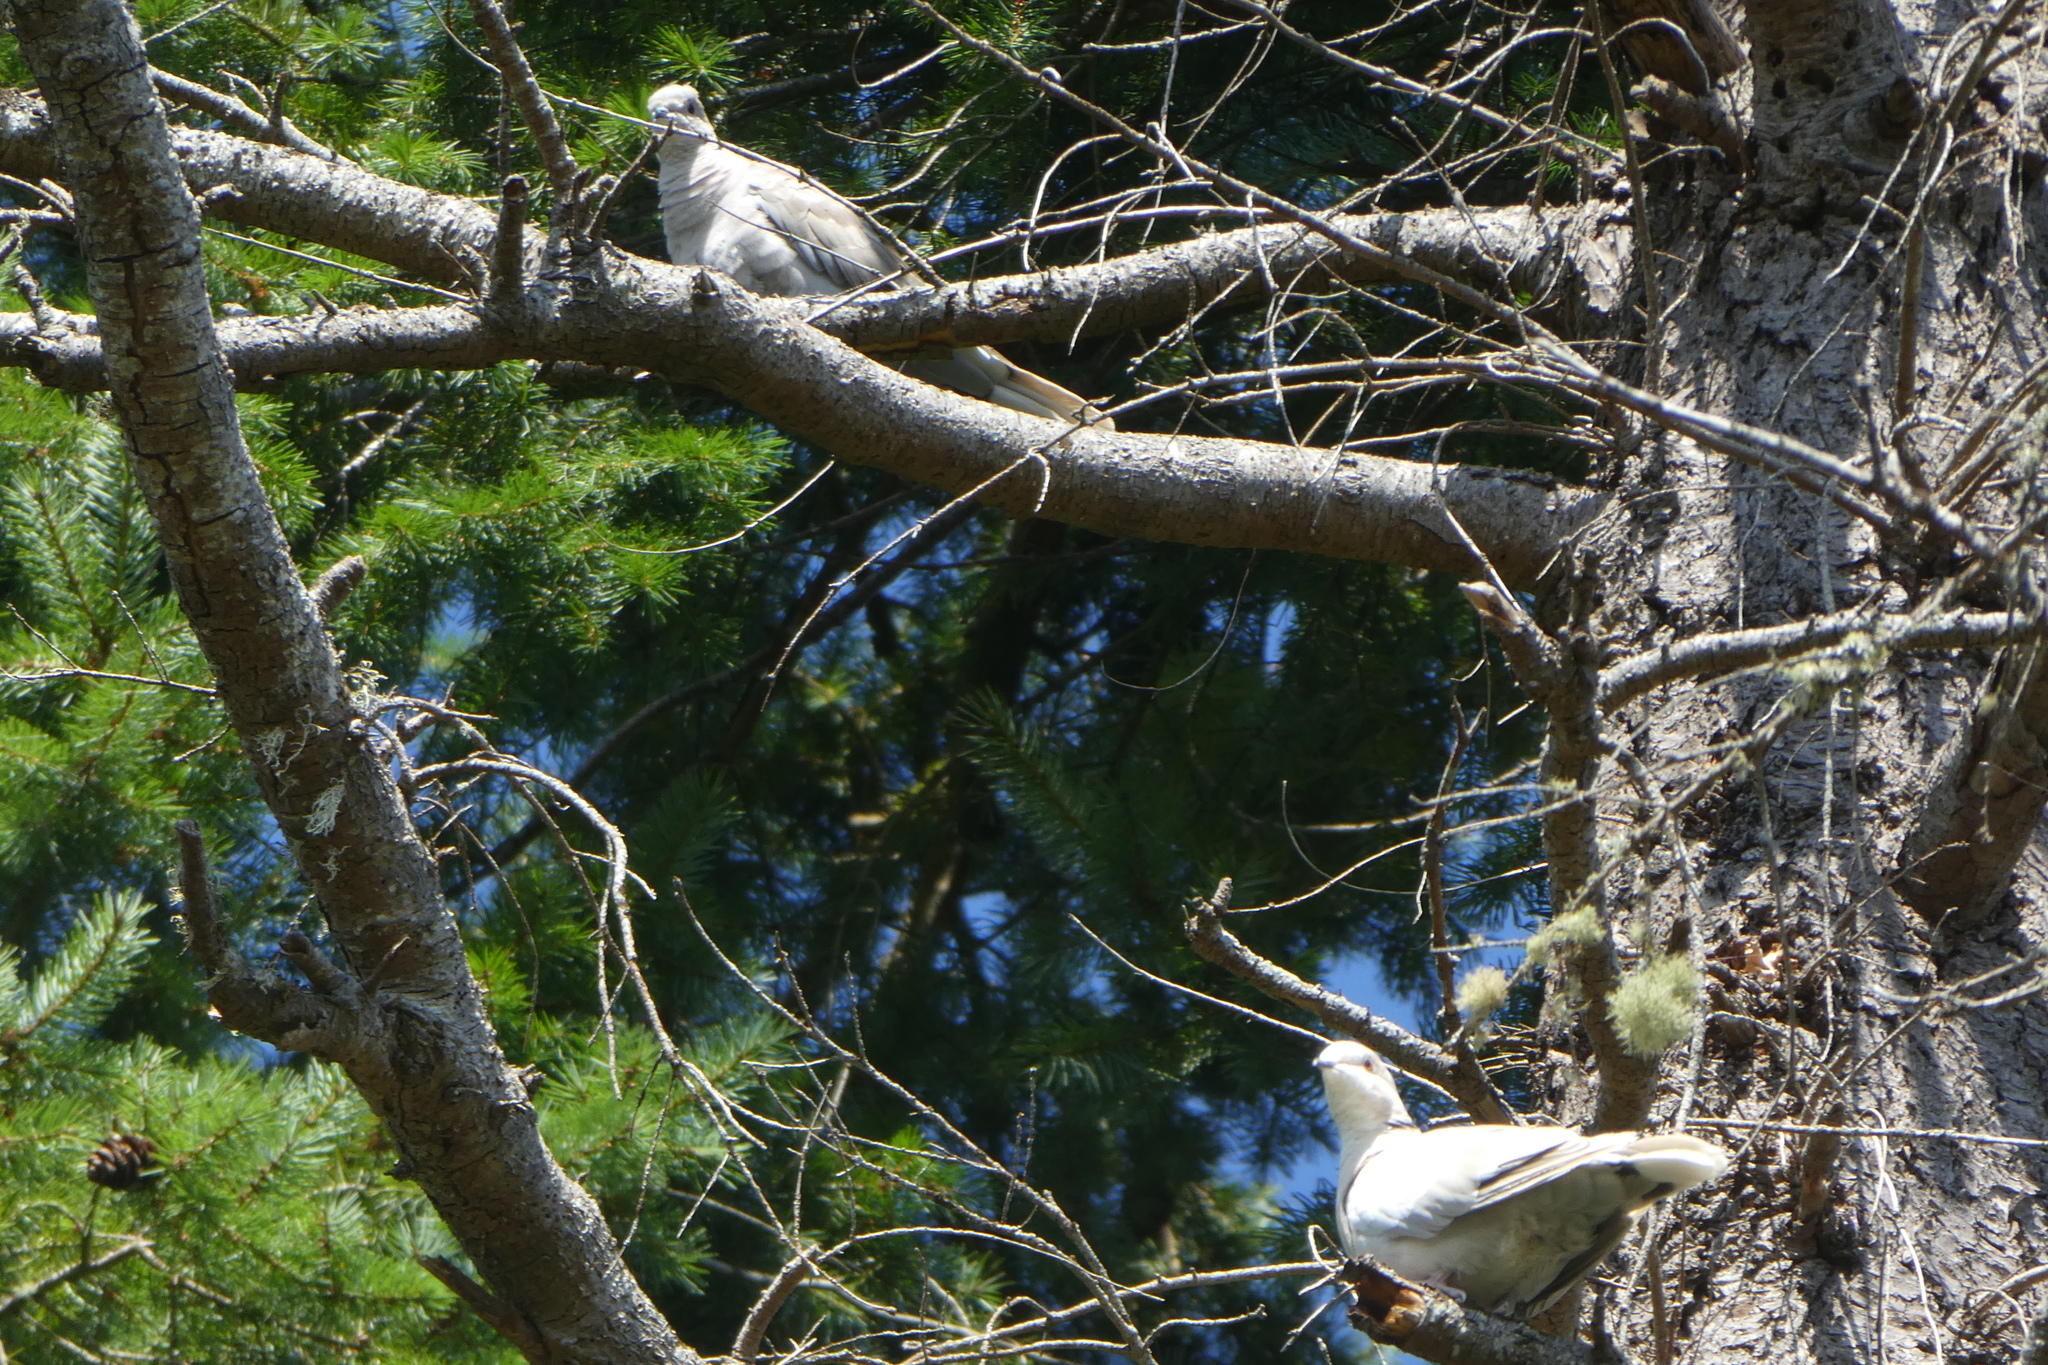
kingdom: Animalia
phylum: Chordata
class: Aves
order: Columbiformes
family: Columbidae
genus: Streptopelia
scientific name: Streptopelia decaocto
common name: Eurasian collared dove
